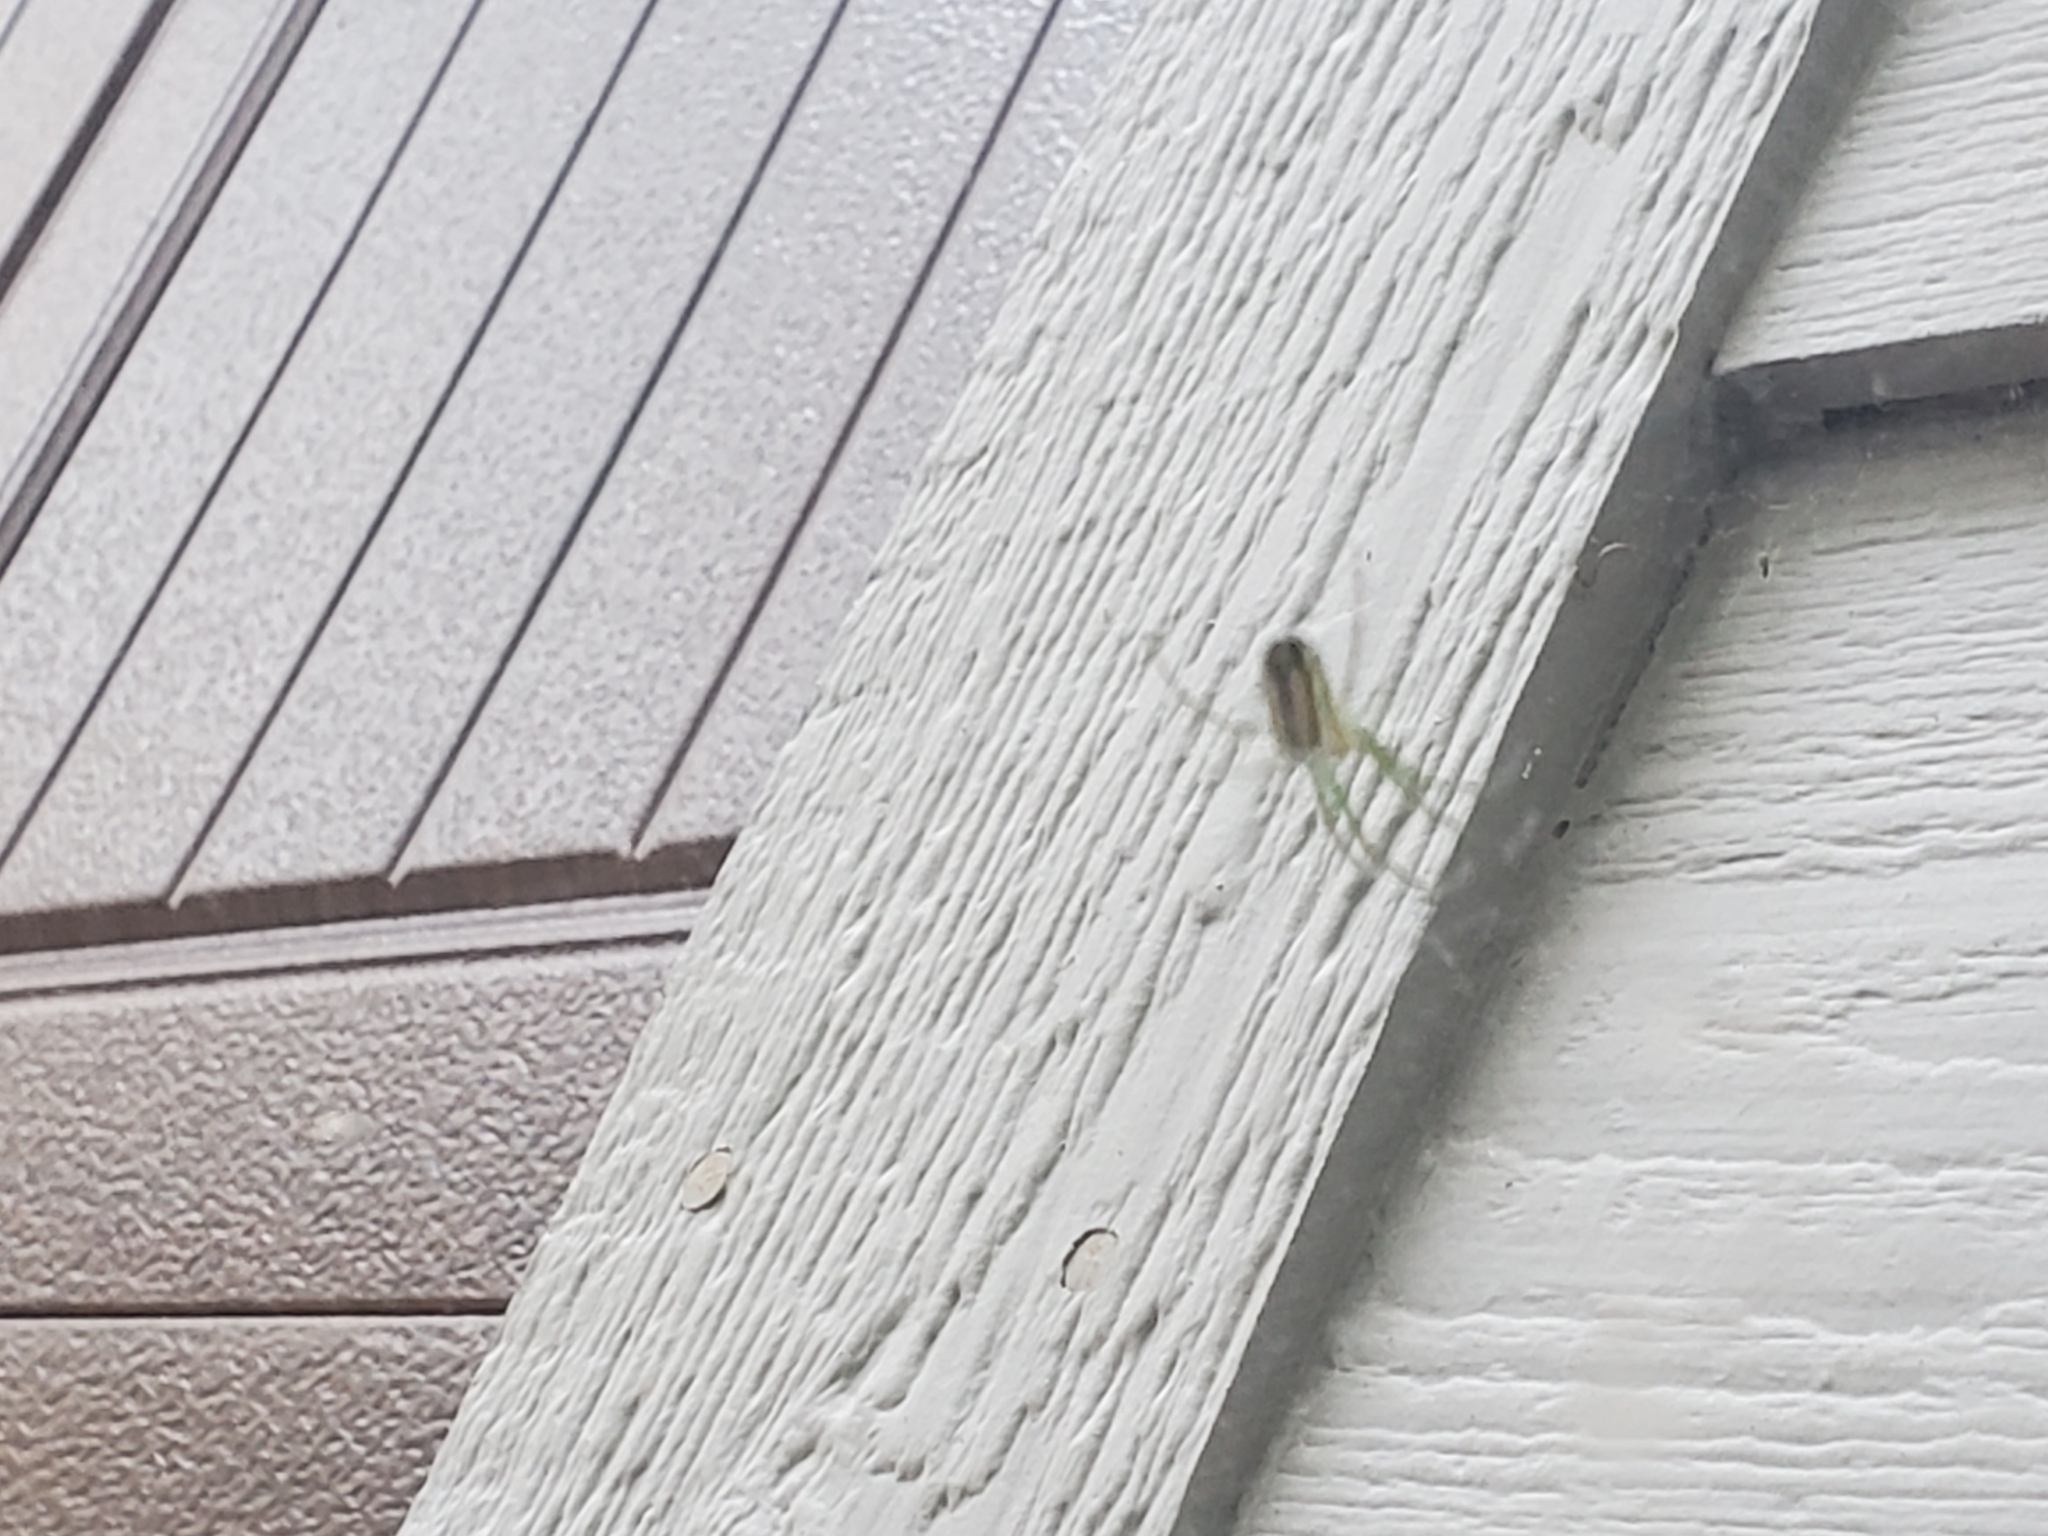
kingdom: Animalia
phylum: Arthropoda
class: Arachnida
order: Araneae
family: Tetragnathidae
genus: Leucauge
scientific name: Leucauge venusta
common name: Longjawed orb weavers
